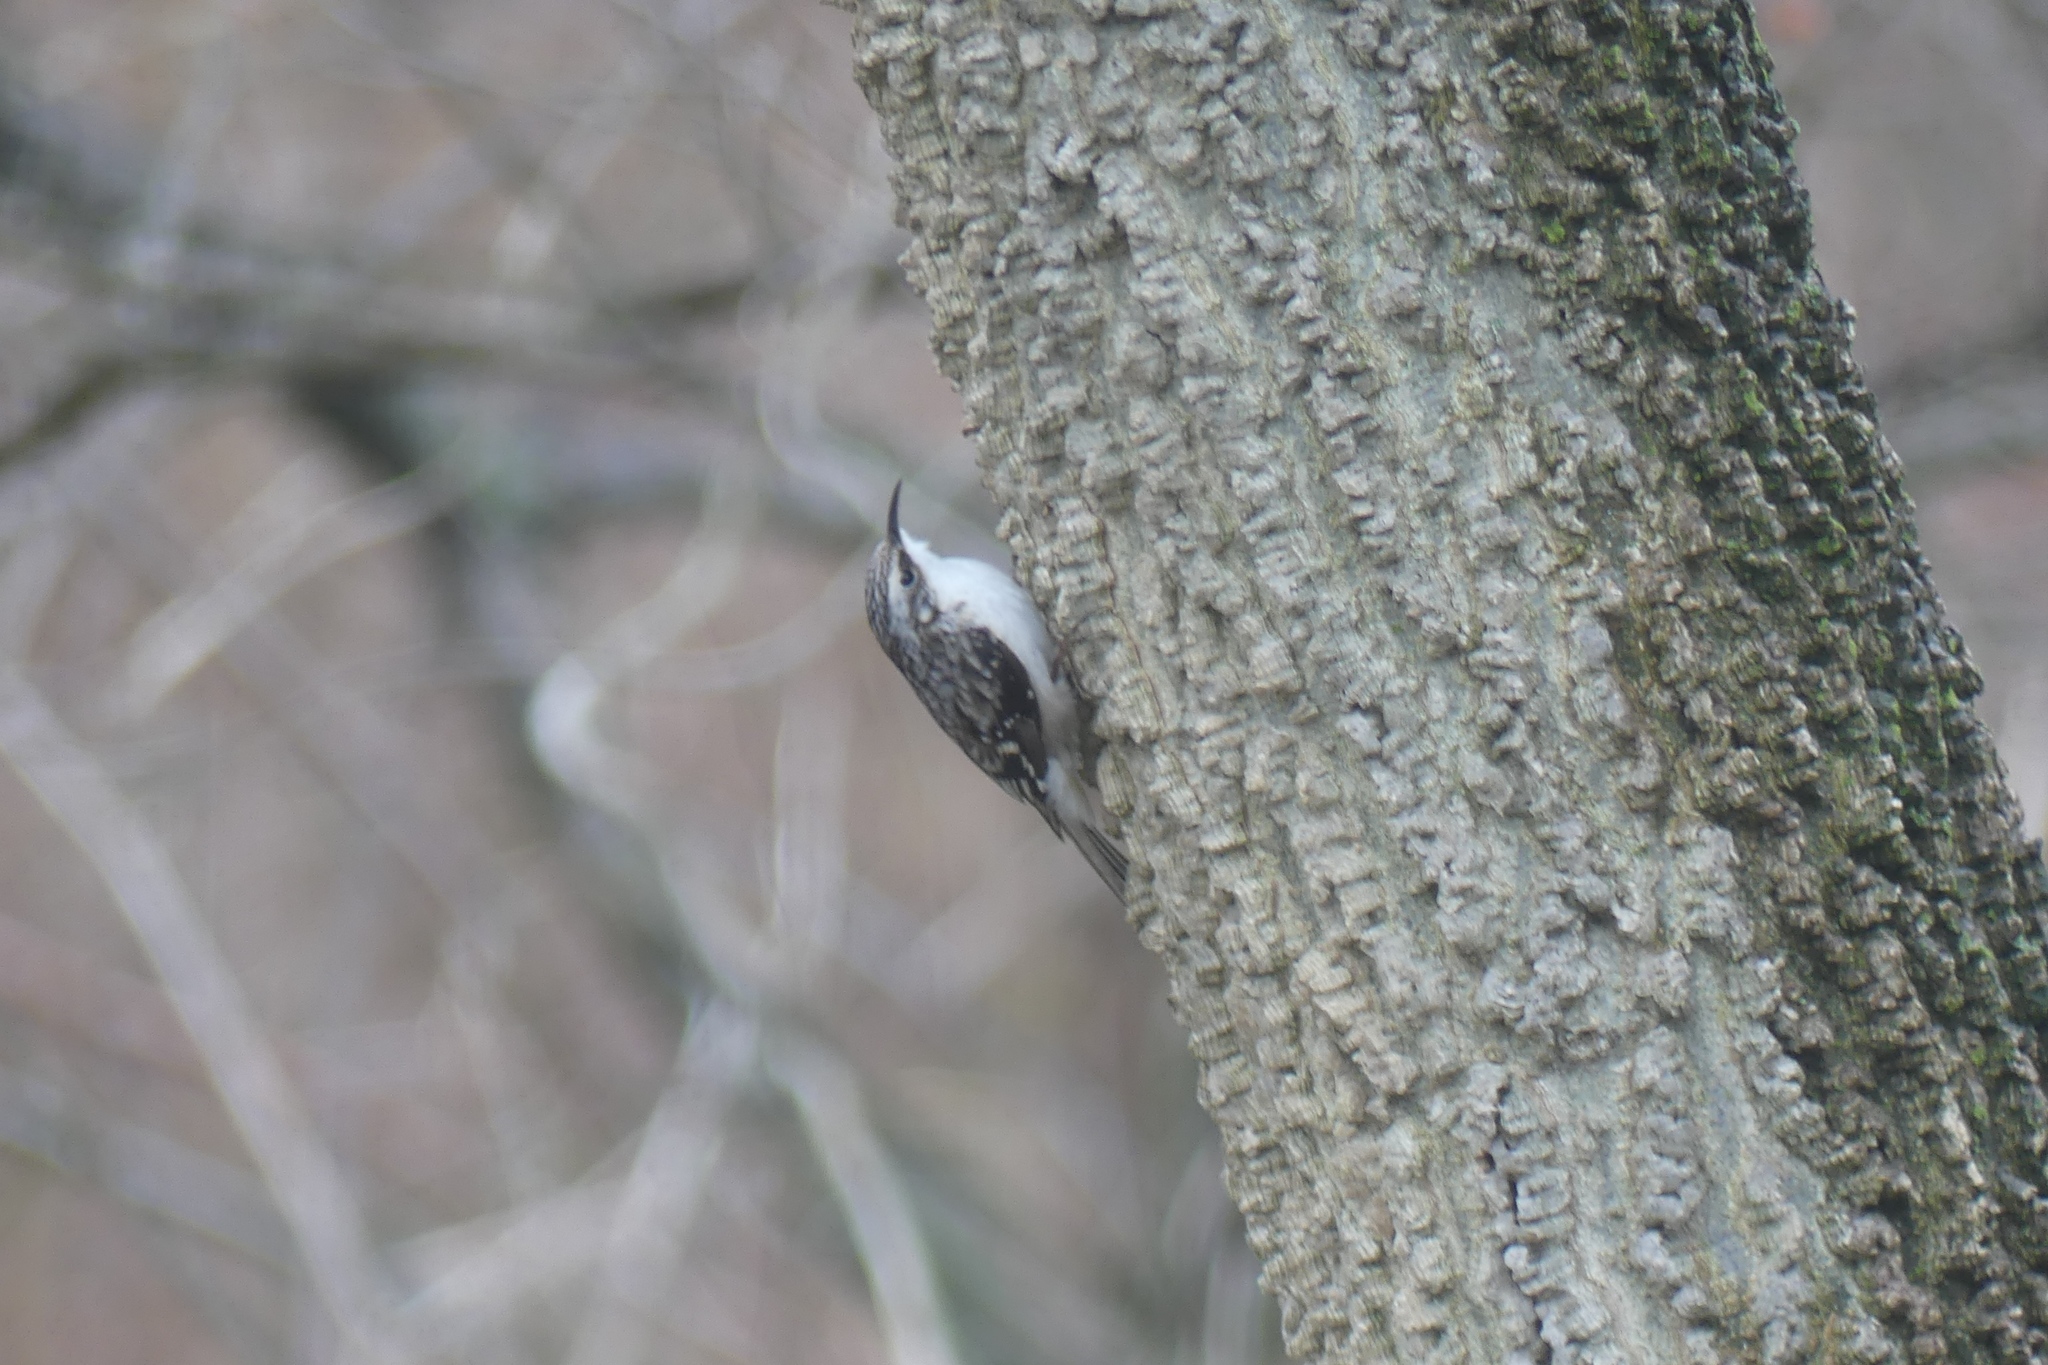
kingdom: Animalia
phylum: Chordata
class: Aves
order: Passeriformes
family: Certhiidae
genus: Certhia
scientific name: Certhia americana
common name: Brown creeper
